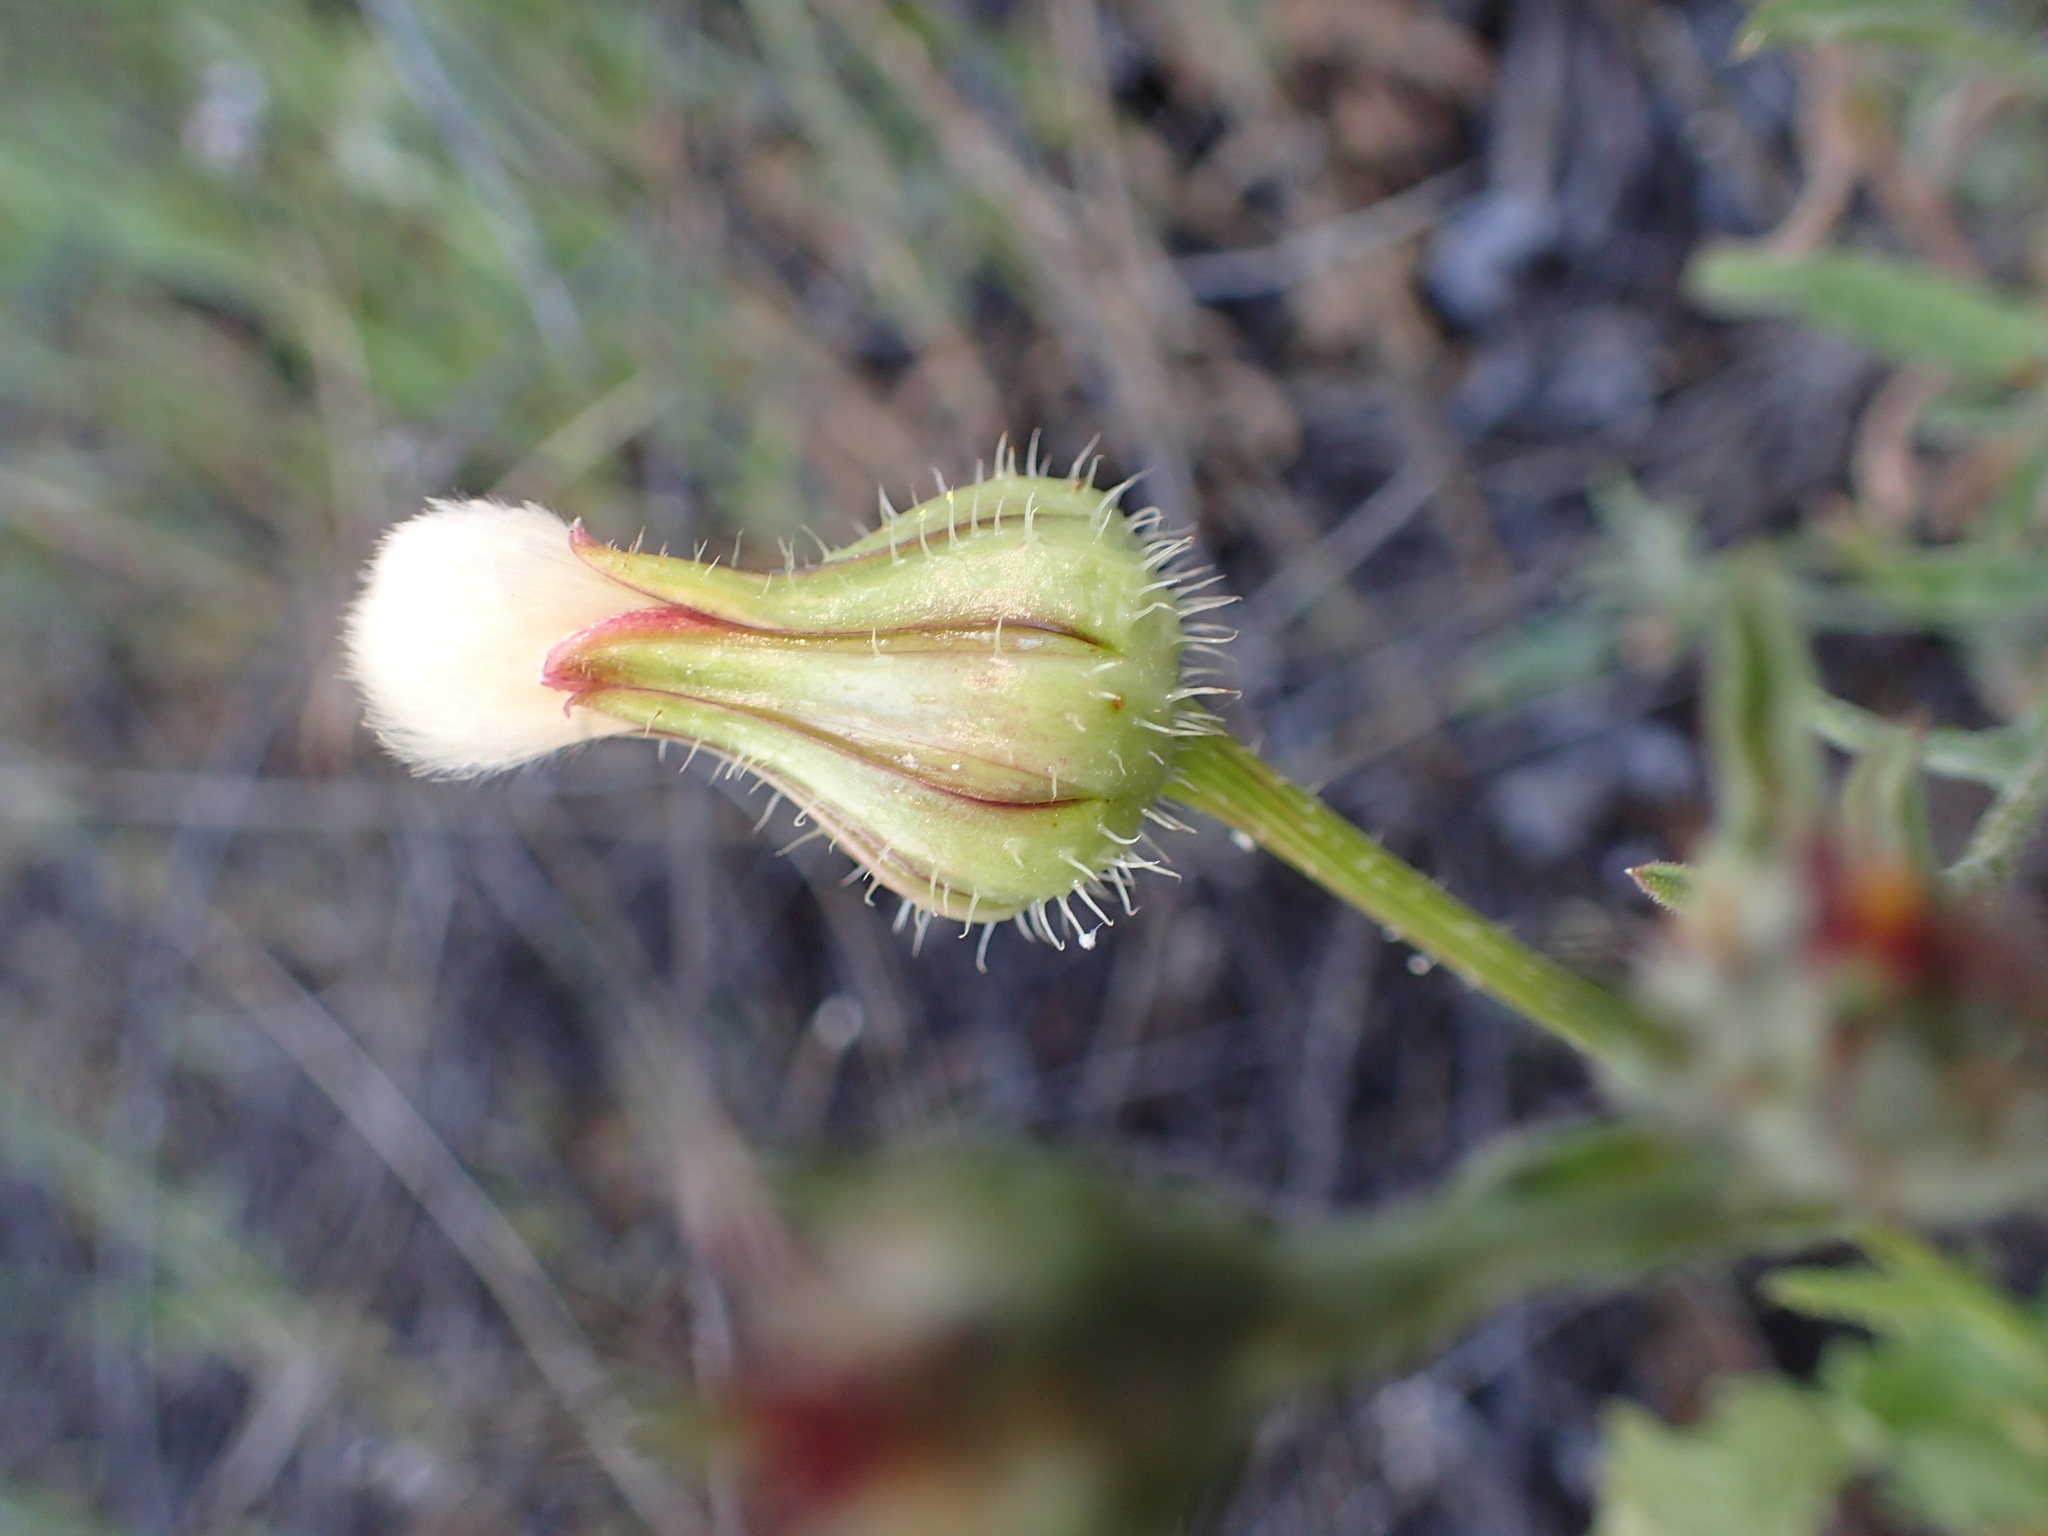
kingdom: Plantae
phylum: Tracheophyta
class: Magnoliopsida
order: Asterales
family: Asteraceae
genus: Urospermum
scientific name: Urospermum picroides
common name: False hawkbit
